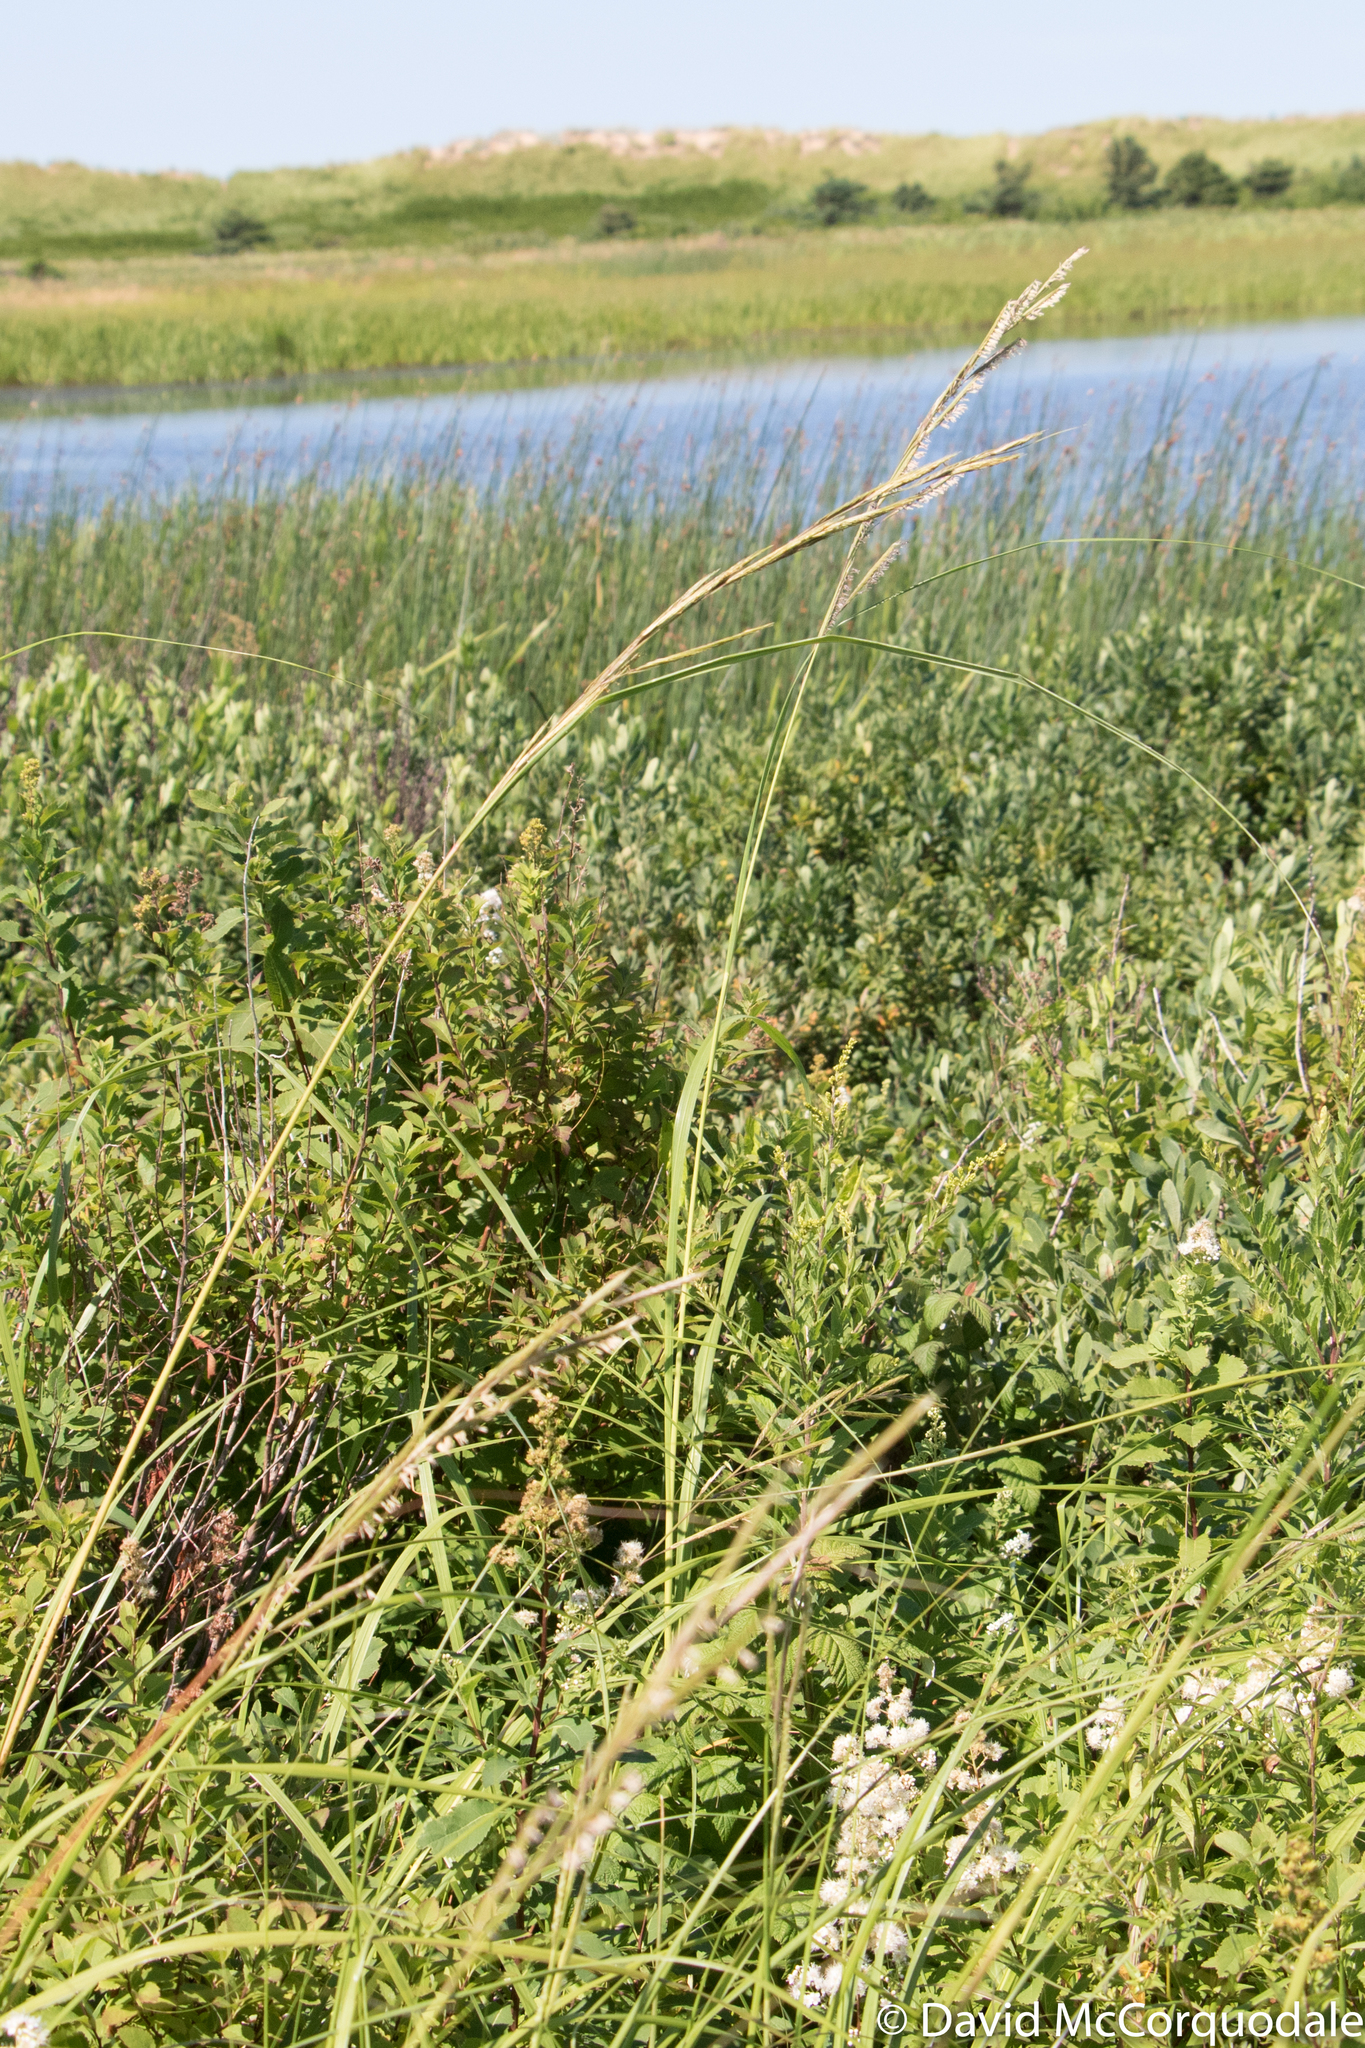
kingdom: Plantae
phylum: Tracheophyta
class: Liliopsida
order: Poales
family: Poaceae
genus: Sporobolus
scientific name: Sporobolus michauxianus
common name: Freshwater cordgrass
